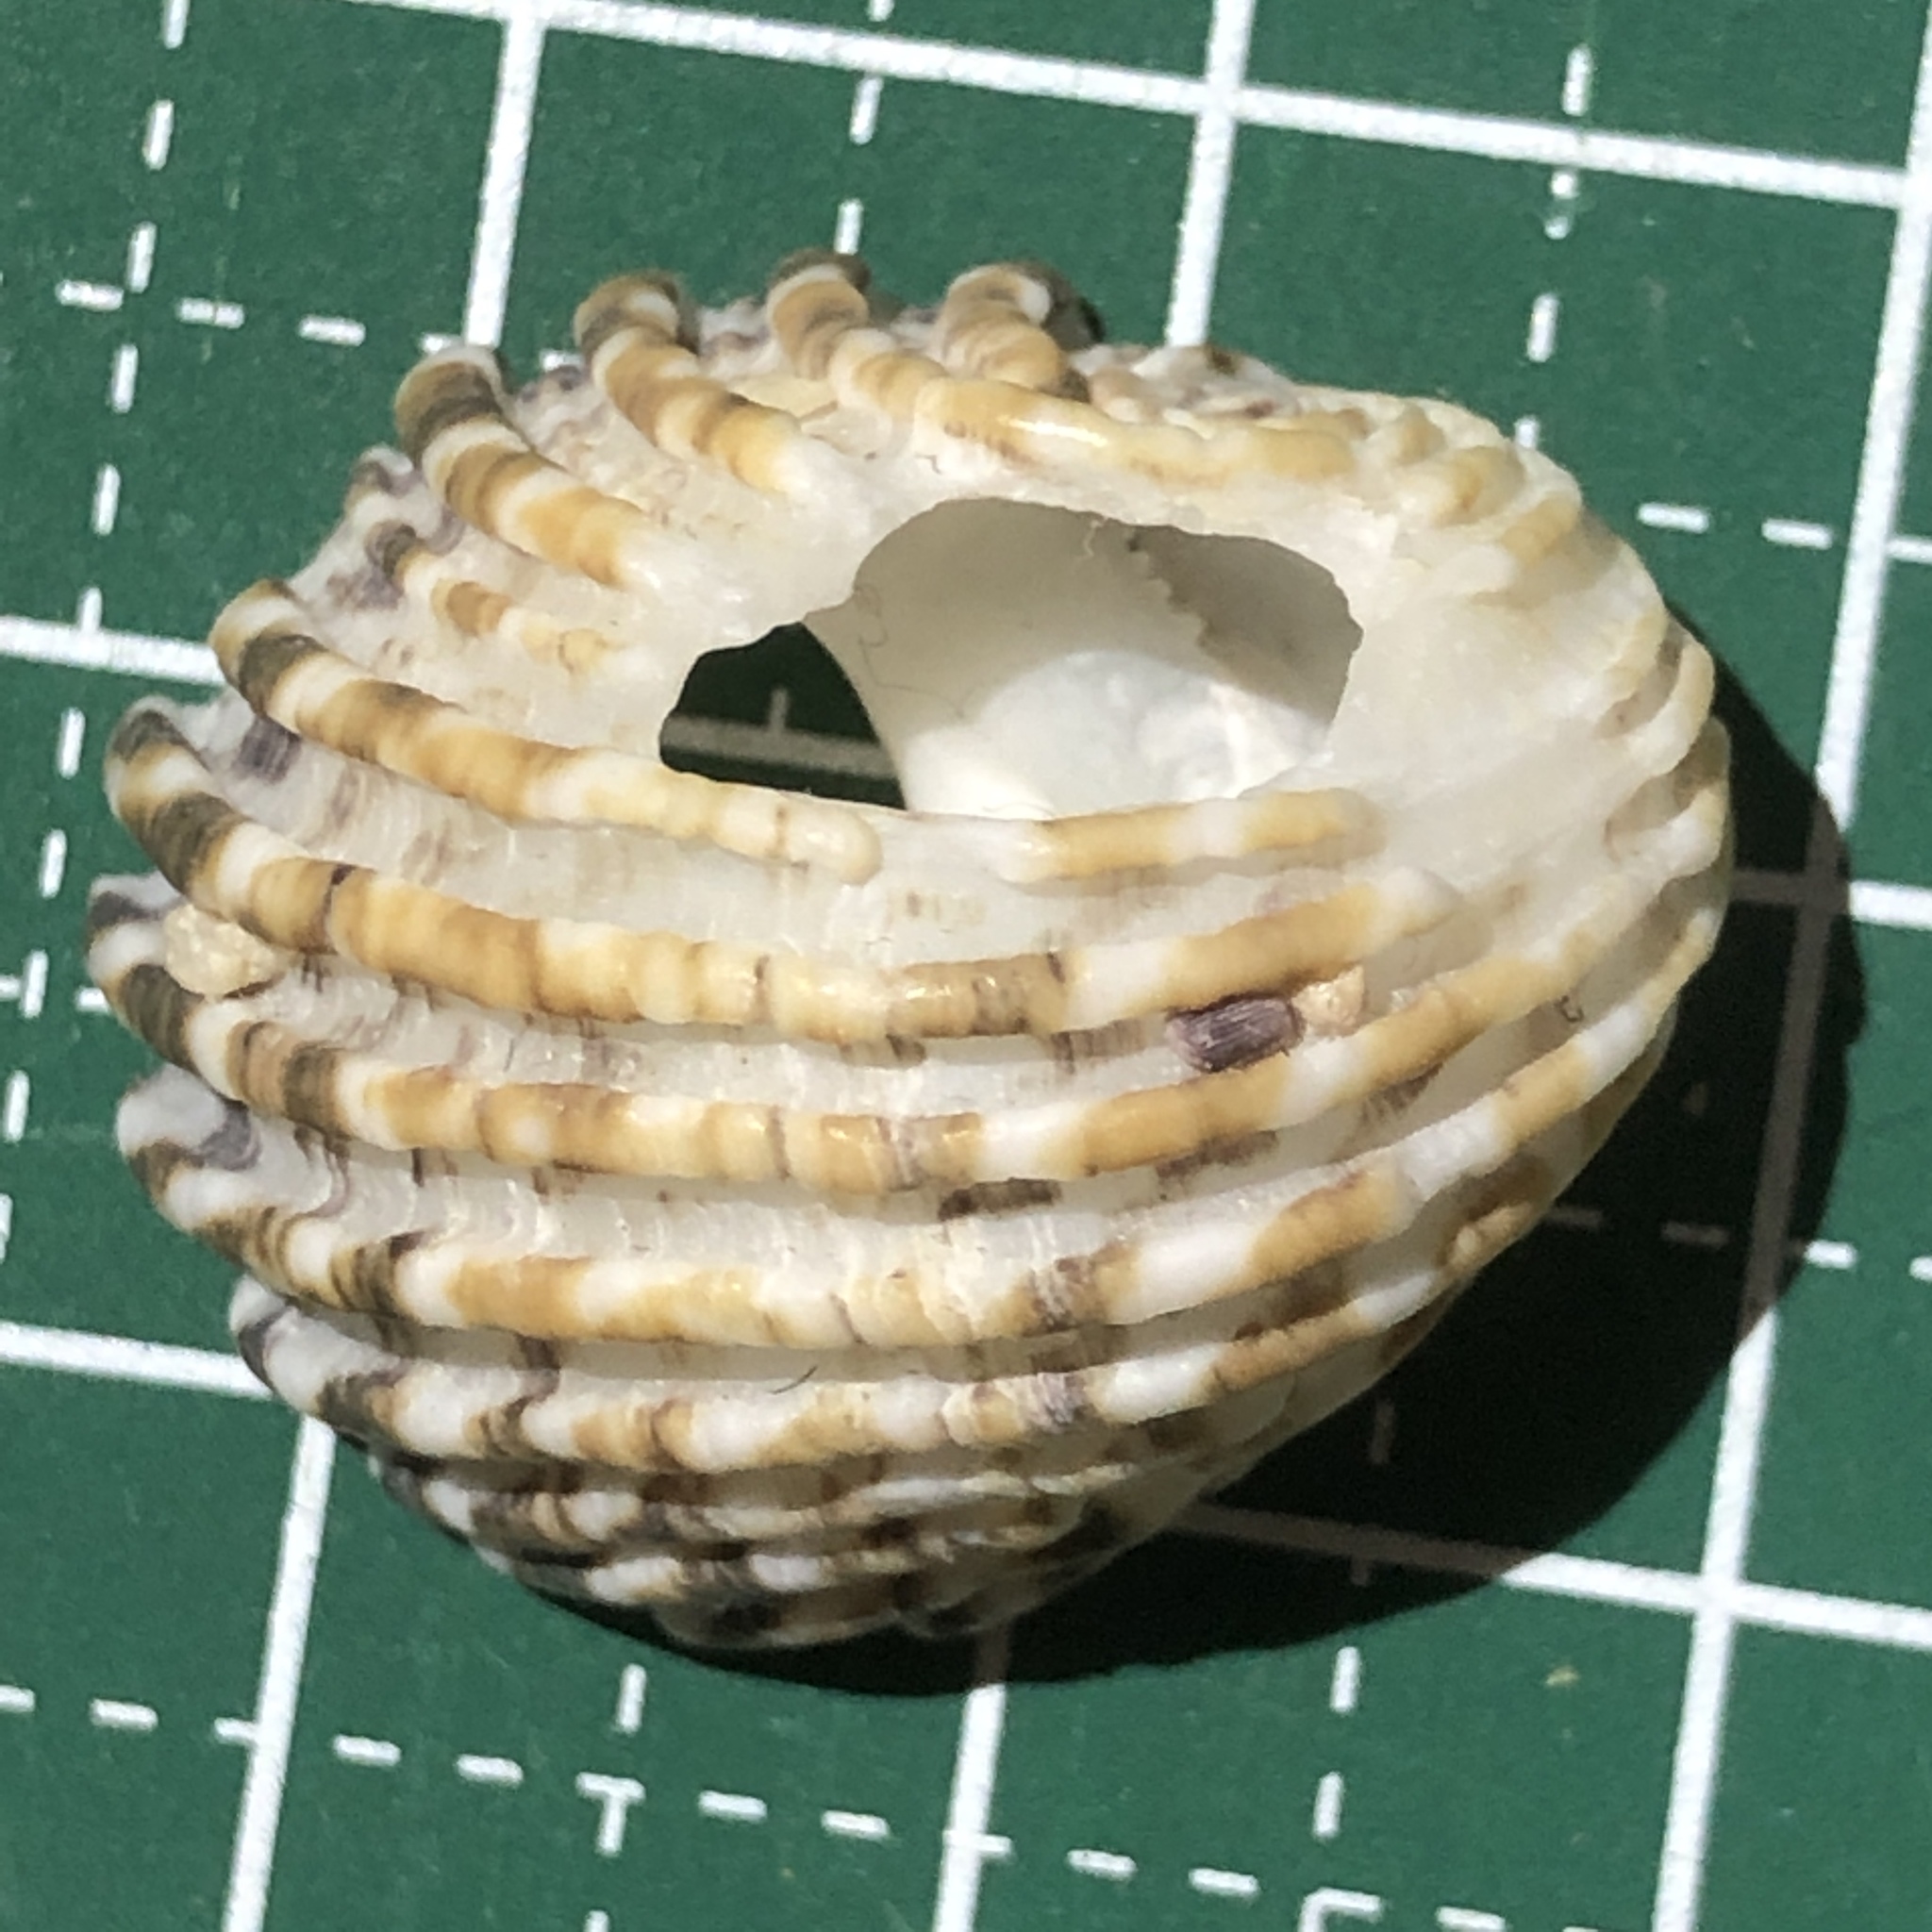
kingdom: Animalia
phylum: Mollusca
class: Gastropoda
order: Cycloneritida
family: Neritidae
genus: Nerita
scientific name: Nerita exuvia
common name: Snake-skin nerite
